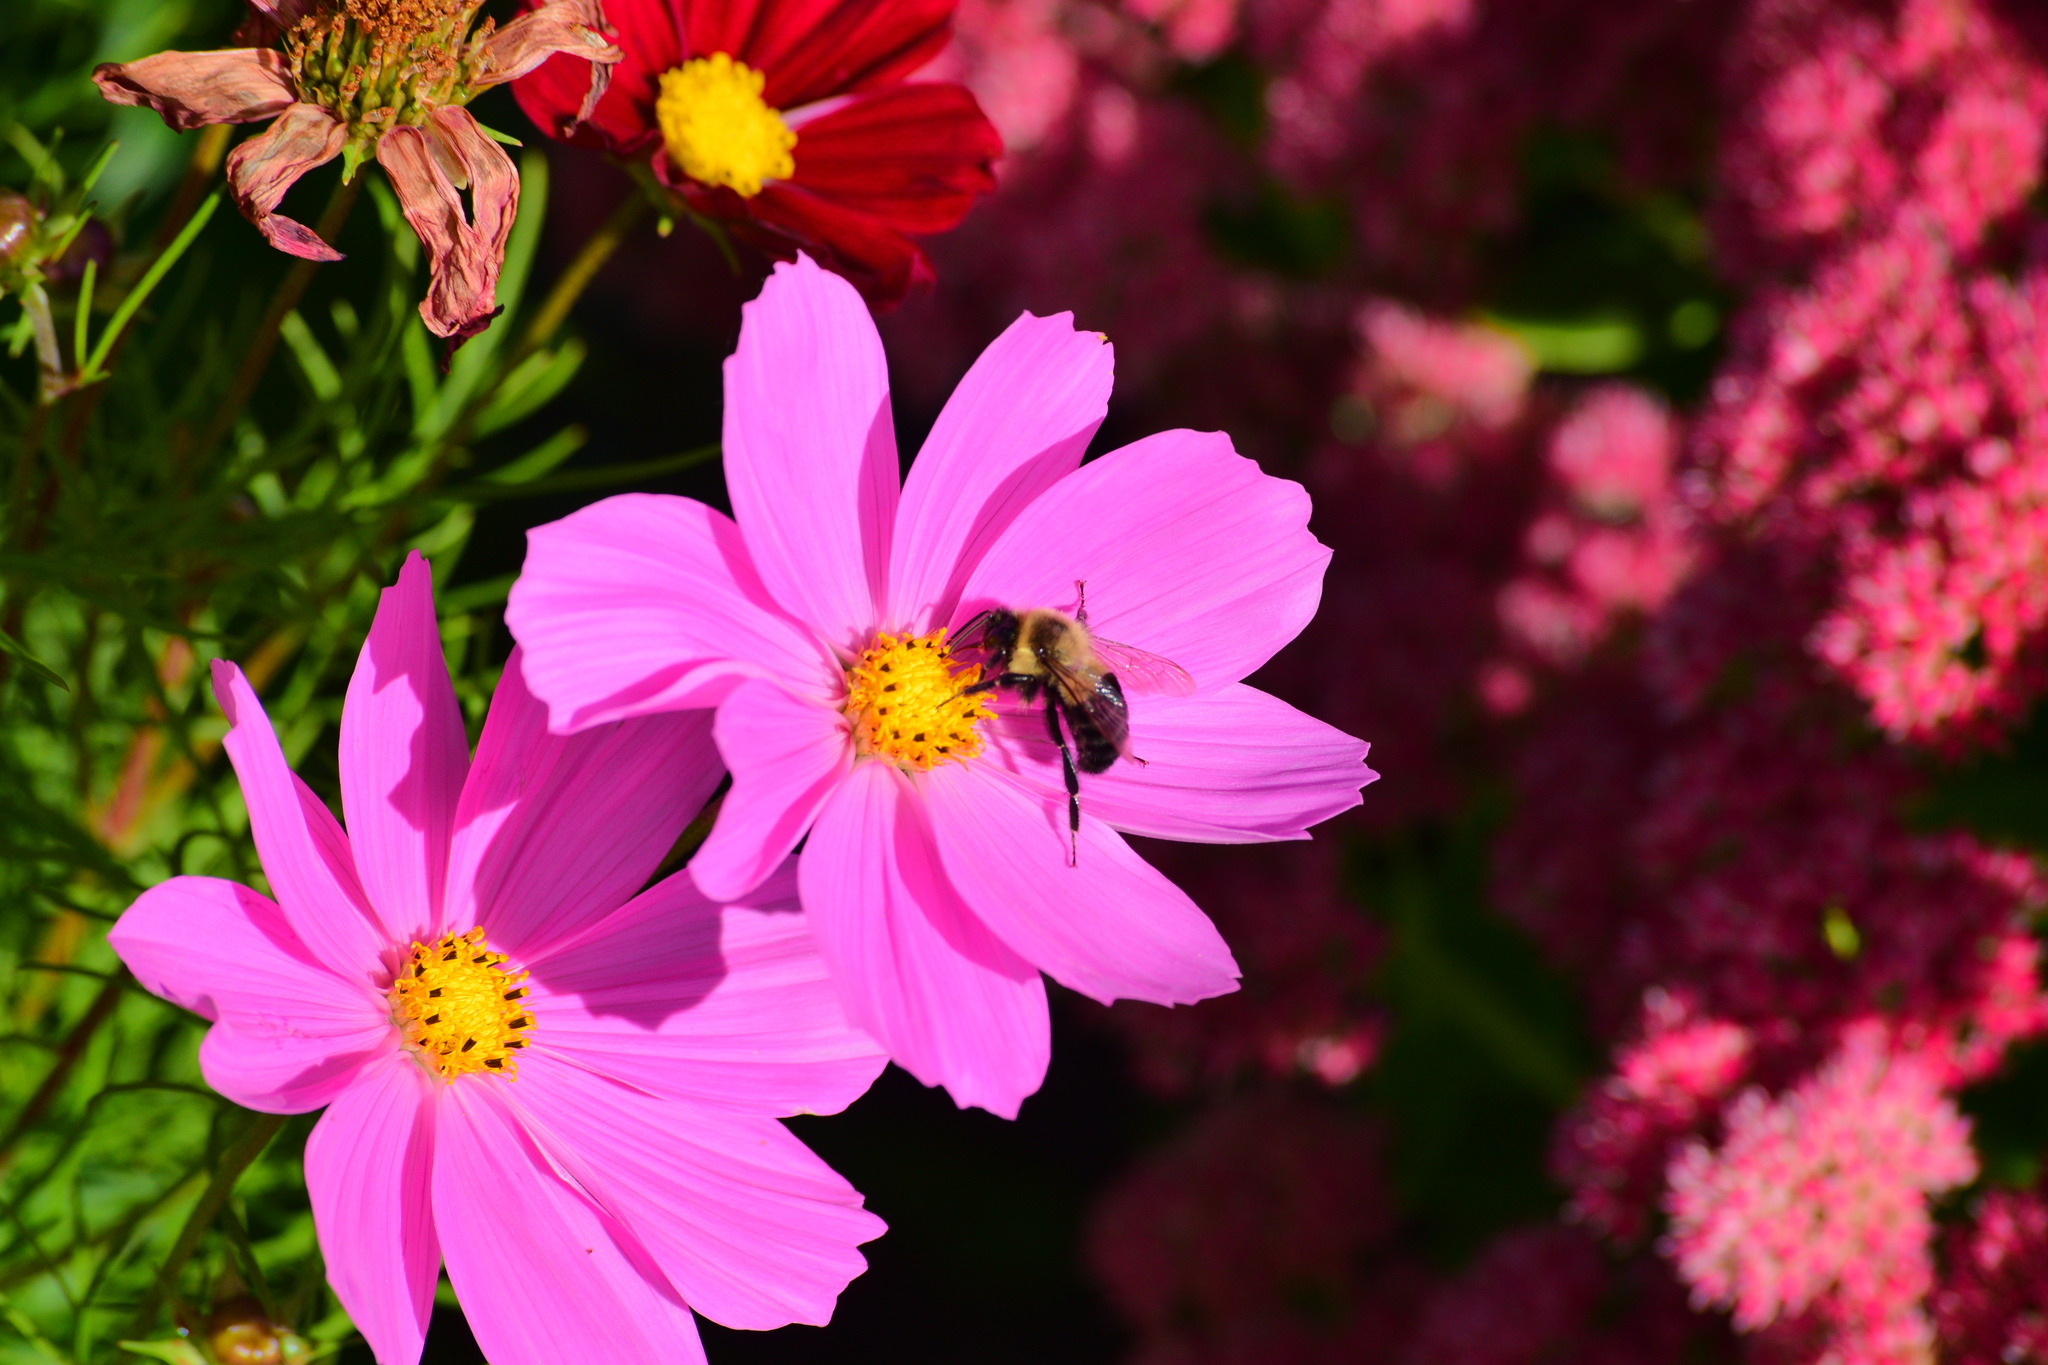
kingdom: Animalia
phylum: Arthropoda
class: Insecta
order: Hymenoptera
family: Apidae
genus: Bombus
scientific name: Bombus impatiens
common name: Common eastern bumble bee
